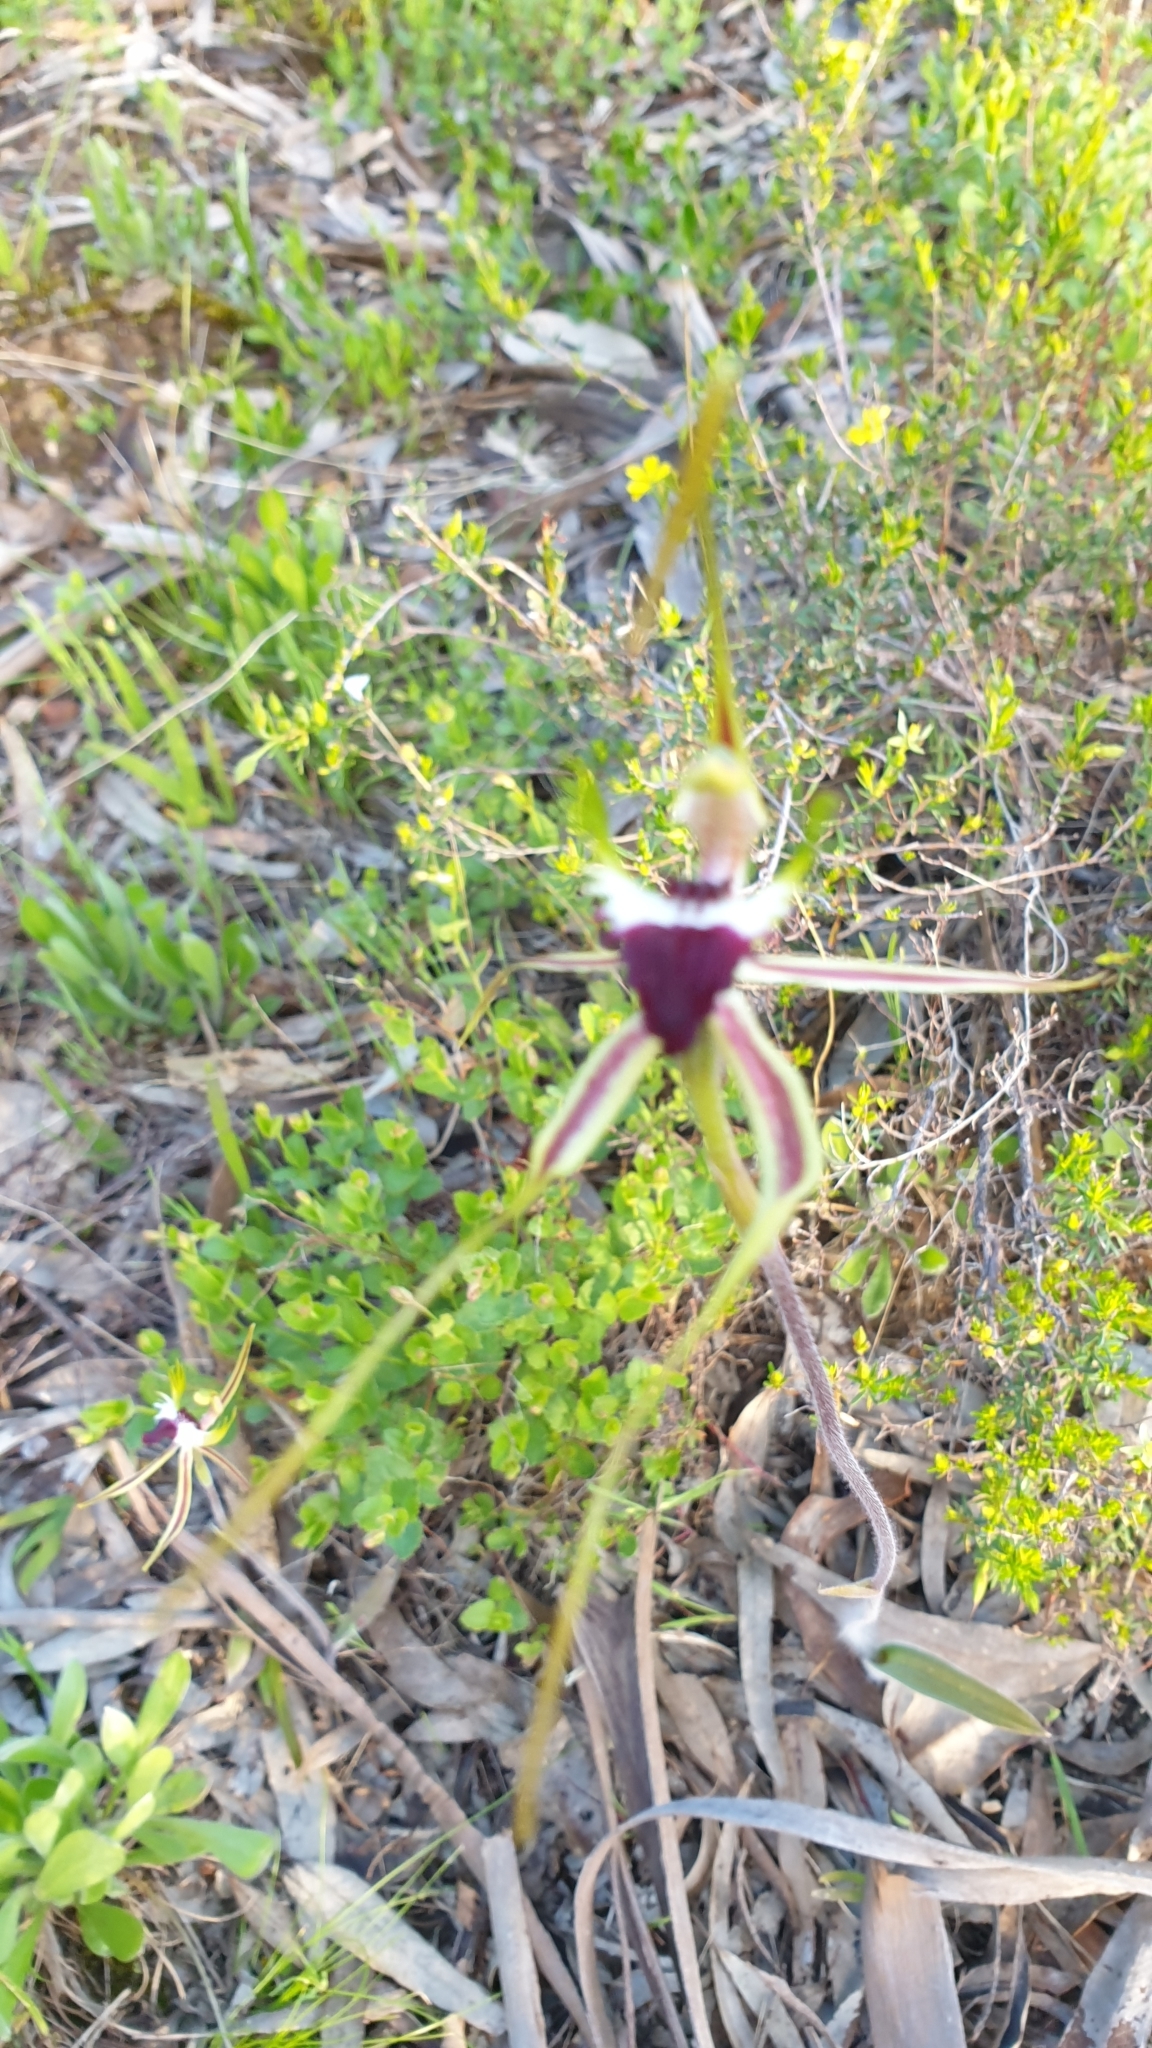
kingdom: Plantae
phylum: Tracheophyta
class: Liliopsida
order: Asparagales
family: Orchidaceae
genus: Caladenia
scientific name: Caladenia tentaculata
